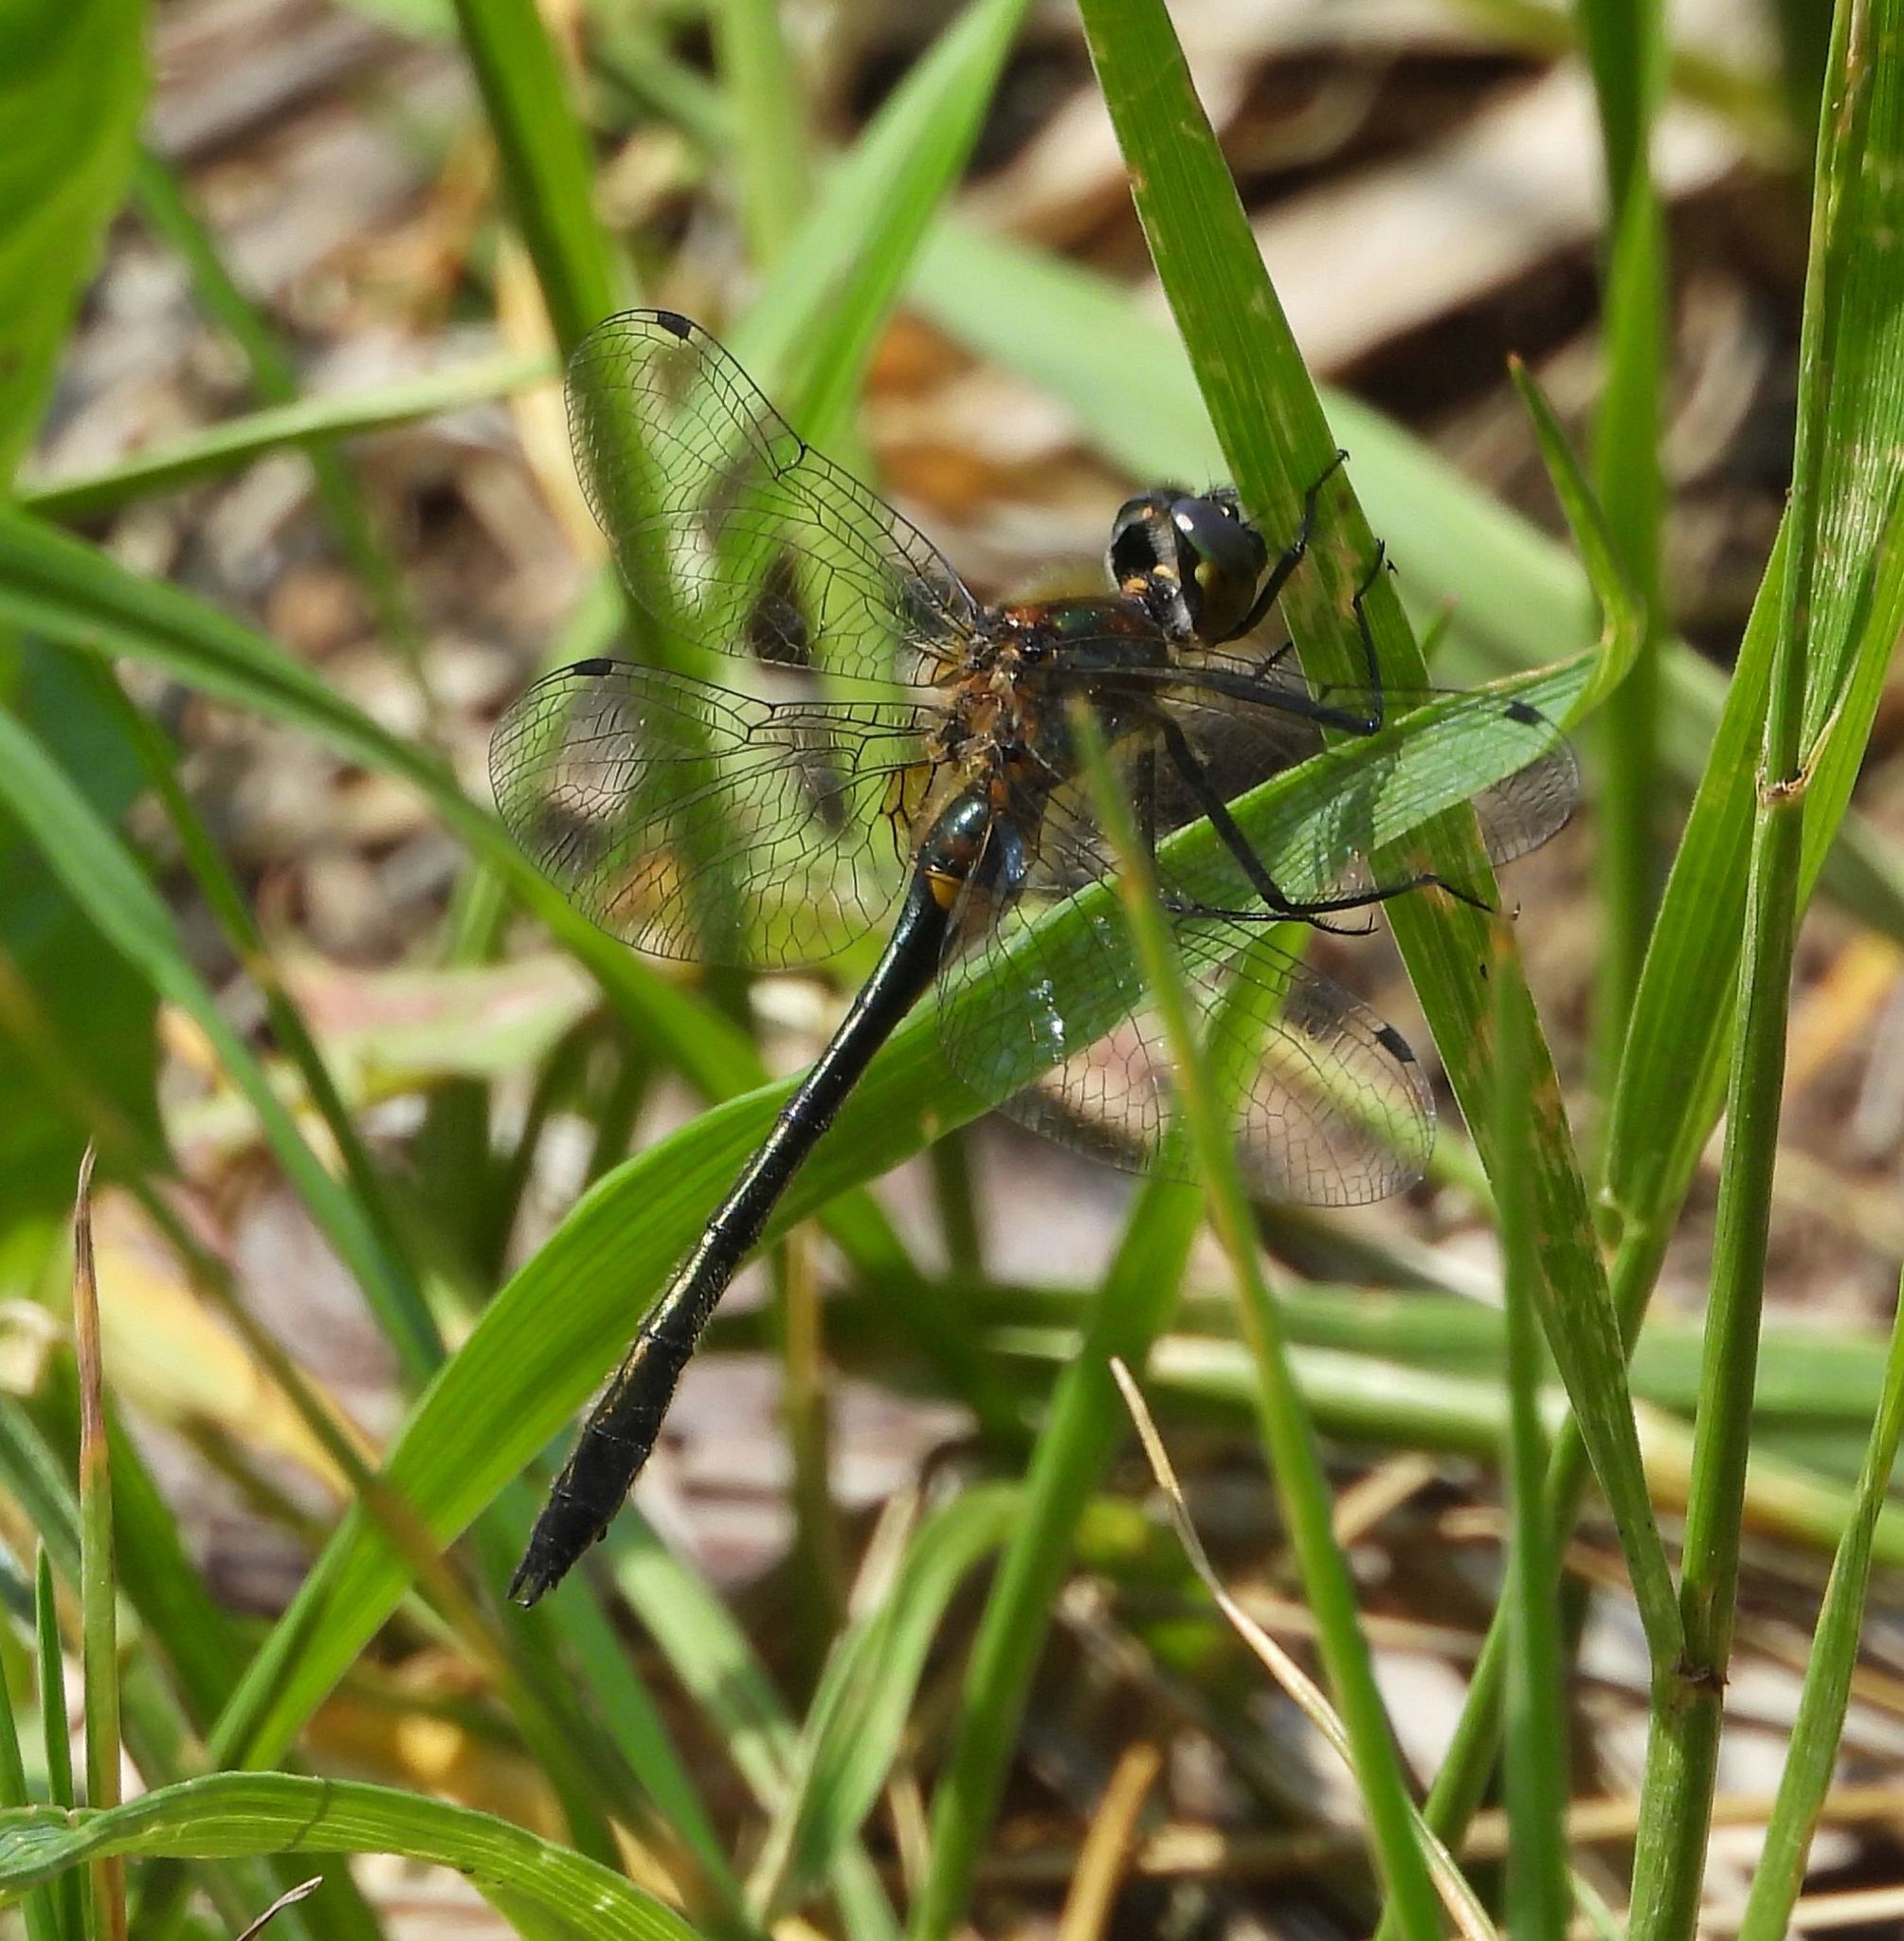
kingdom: Animalia
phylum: Arthropoda
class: Insecta
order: Odonata
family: Corduliidae
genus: Dorocordulia
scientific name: Dorocordulia libera
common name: Racket-tailed emerald
